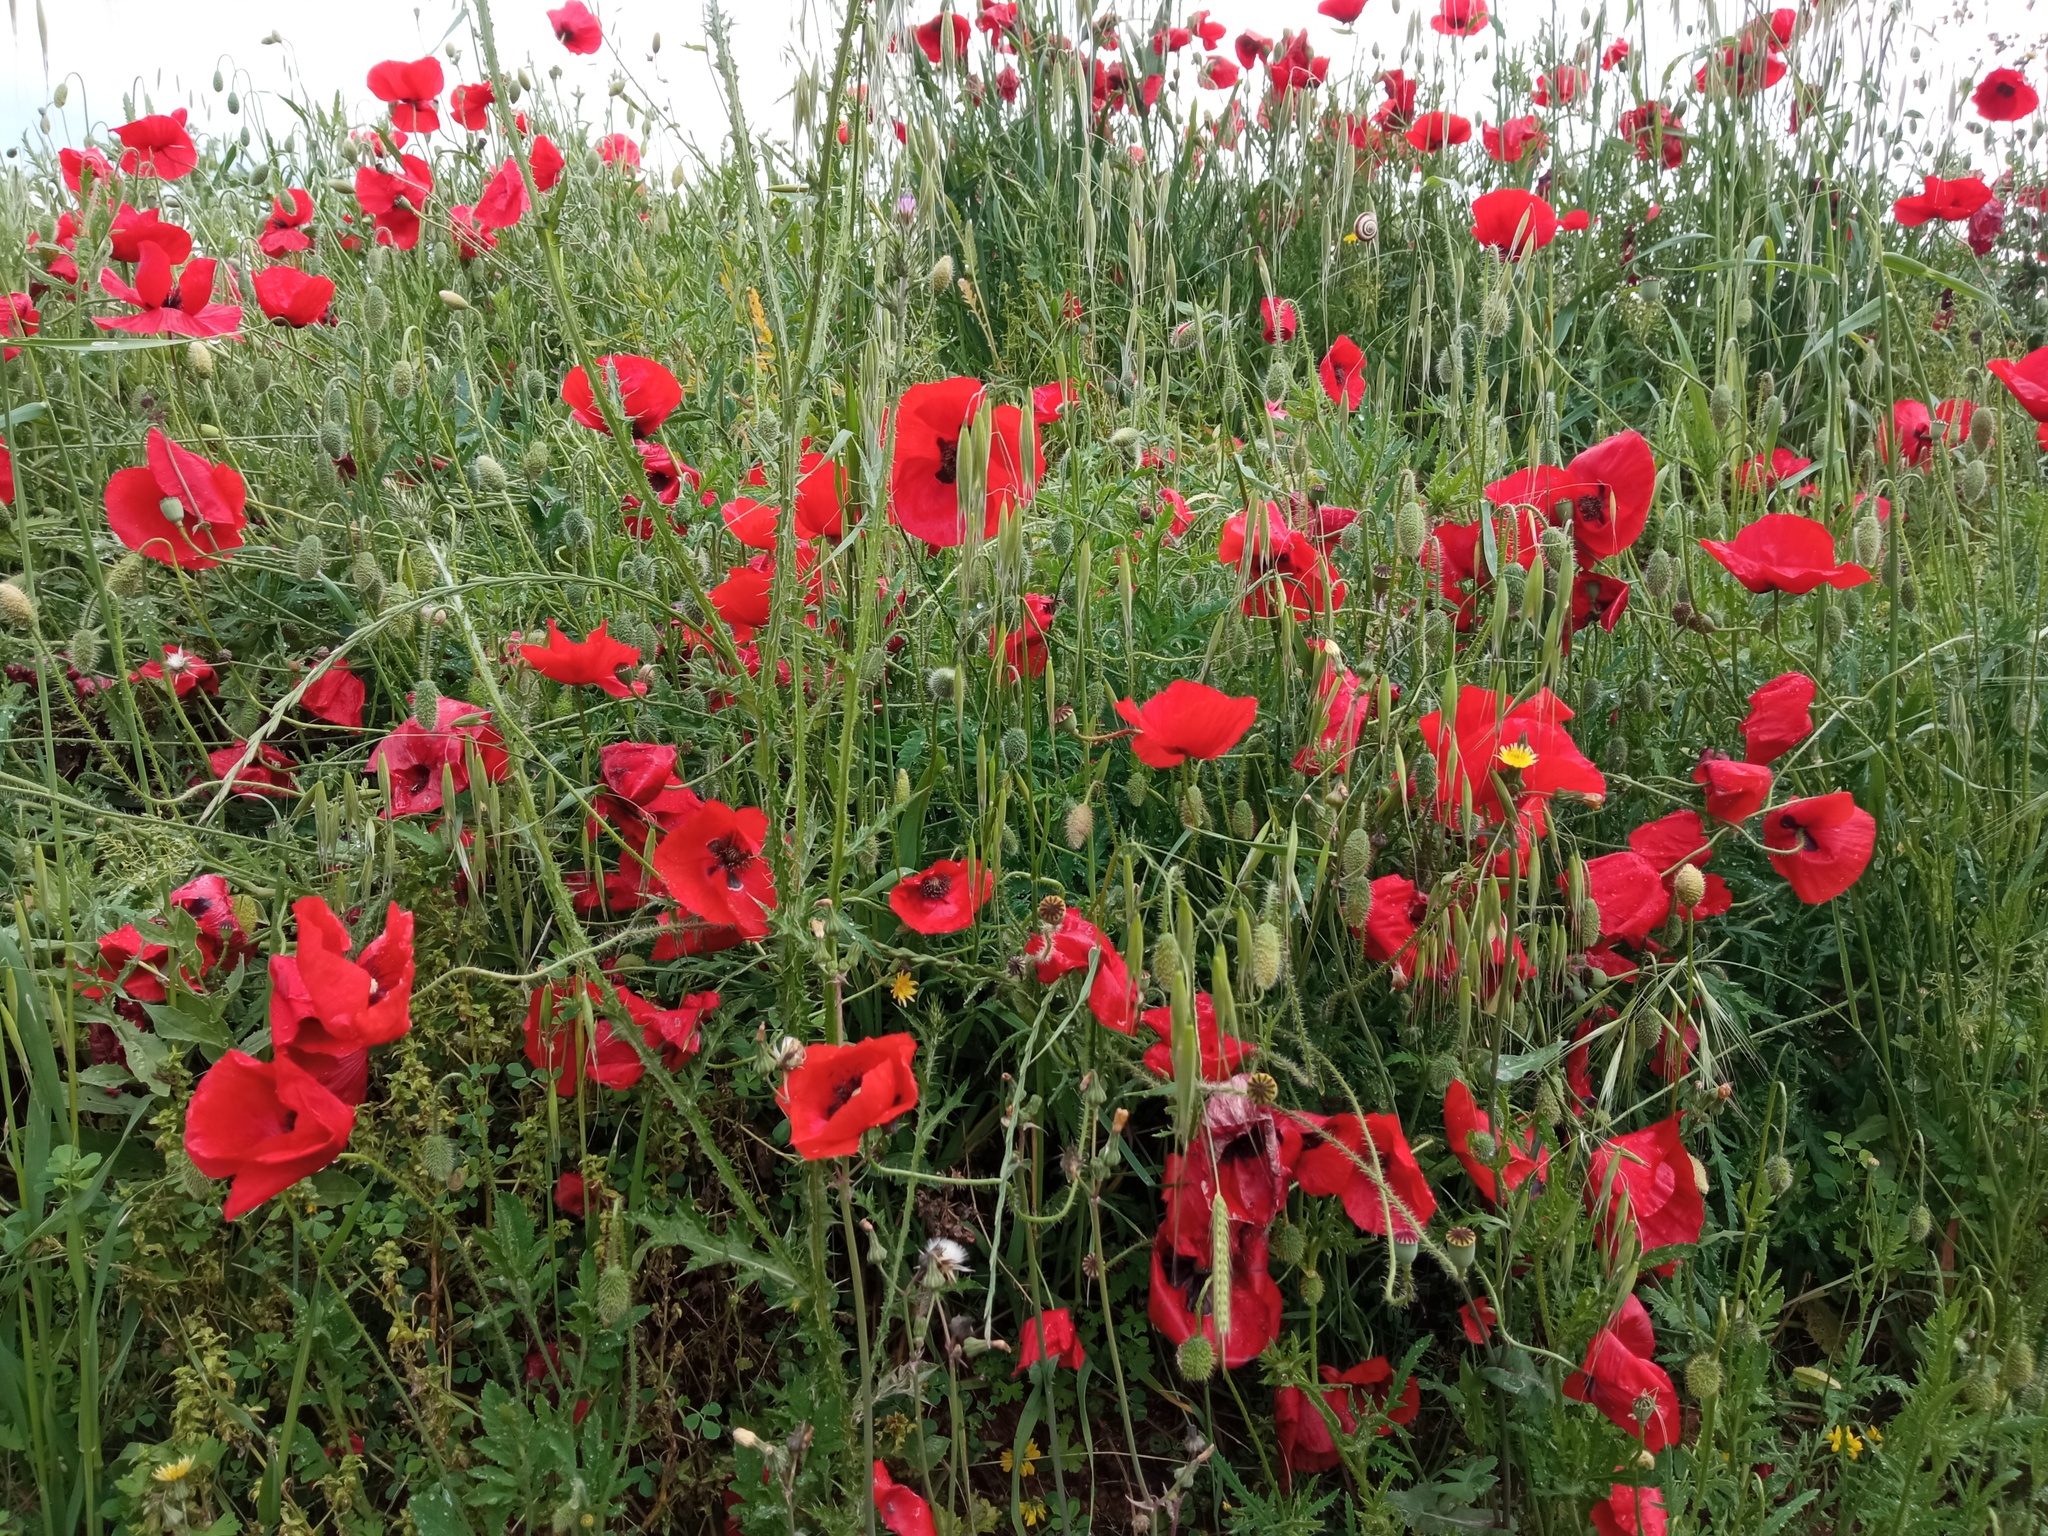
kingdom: Plantae
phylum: Tracheophyta
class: Magnoliopsida
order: Ranunculales
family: Papaveraceae
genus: Papaver
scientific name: Papaver rhoeas
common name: Corn poppy
